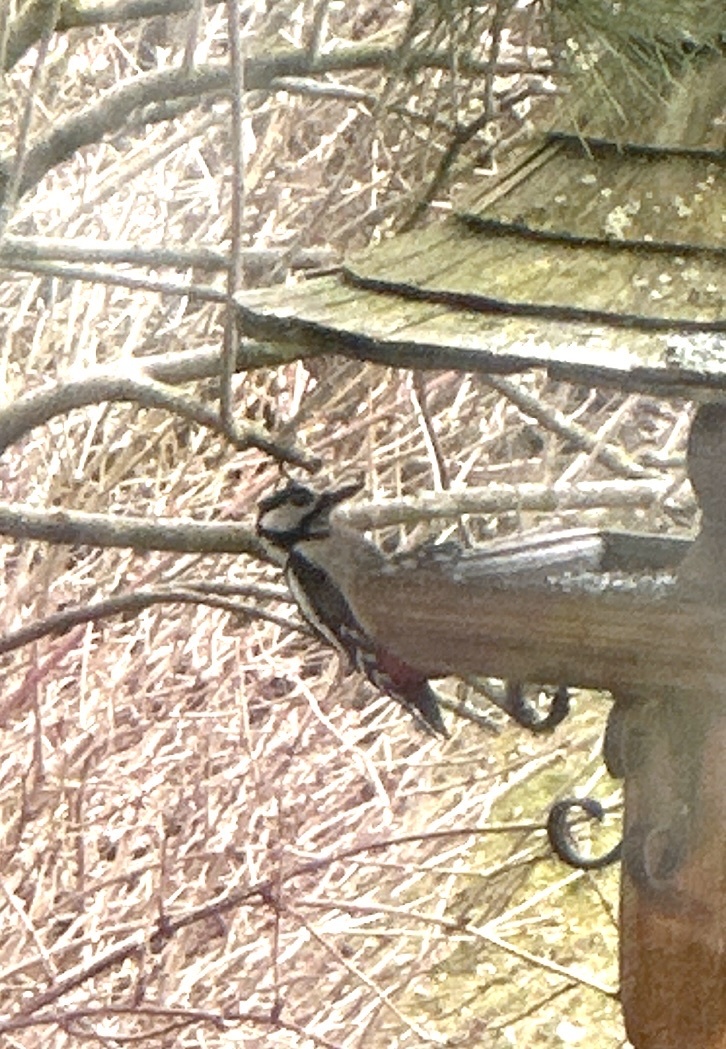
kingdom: Animalia
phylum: Chordata
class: Aves
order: Piciformes
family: Picidae
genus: Dendrocopos
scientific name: Dendrocopos major
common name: Great spotted woodpecker
